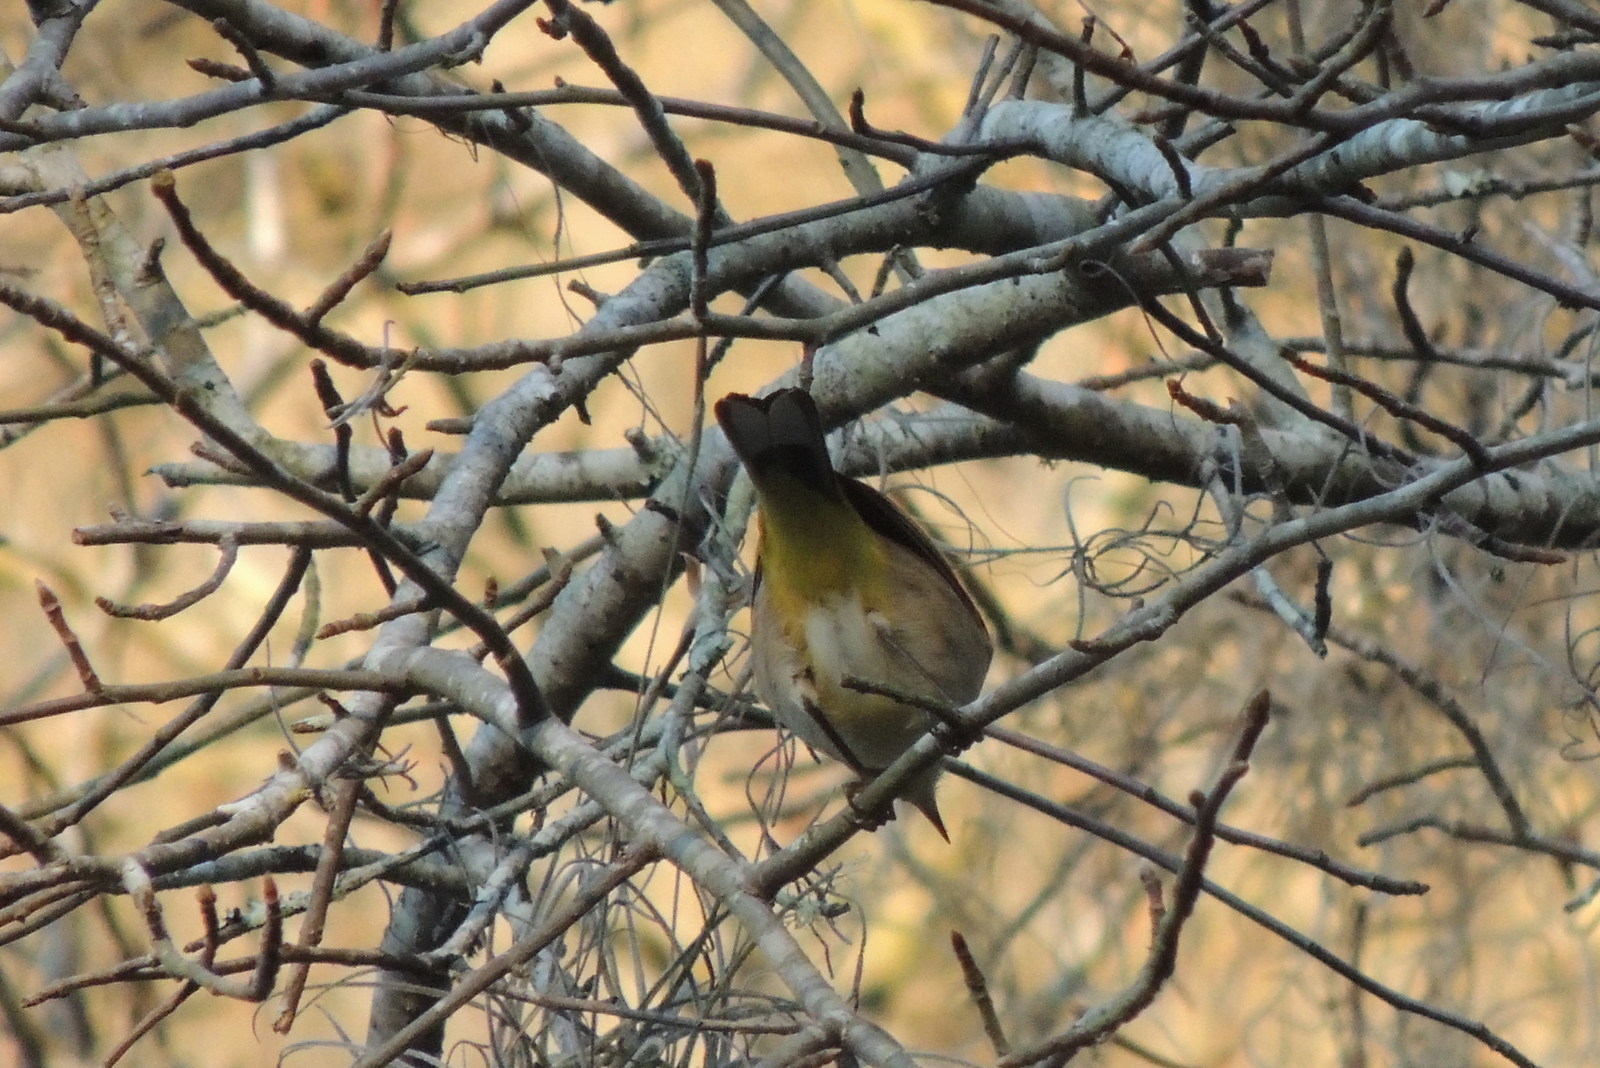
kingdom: Animalia
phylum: Chordata
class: Aves
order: Passeriformes
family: Parulidae
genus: Setophaga
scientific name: Setophaga palmarum
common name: Palm warbler
